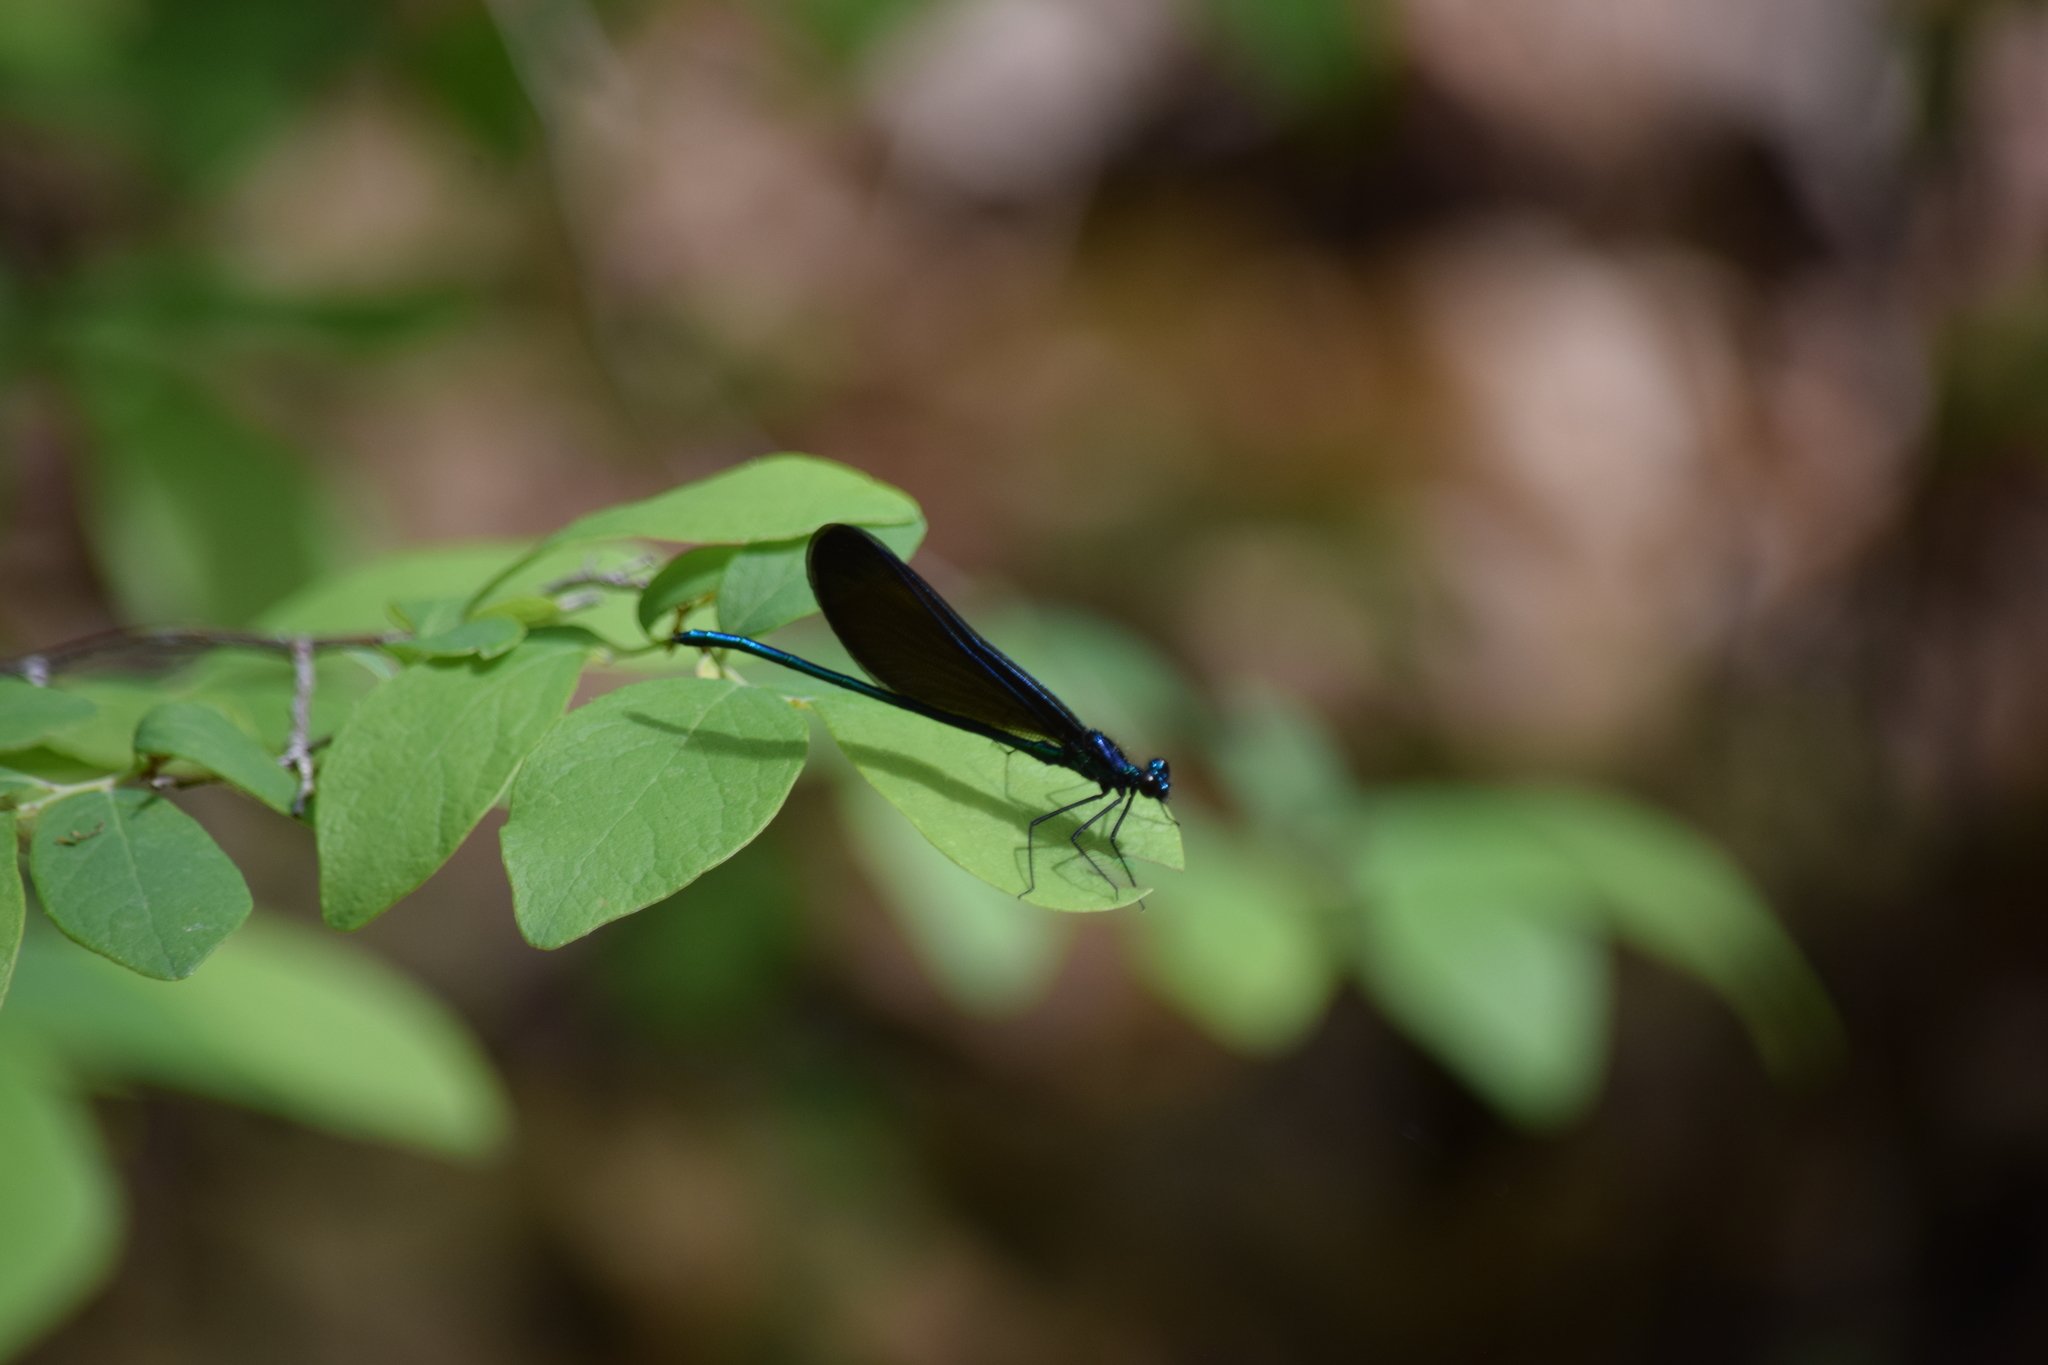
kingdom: Animalia
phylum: Arthropoda
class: Insecta
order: Odonata
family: Calopterygidae
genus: Calopteryx
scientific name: Calopteryx maculata
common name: Ebony jewelwing
